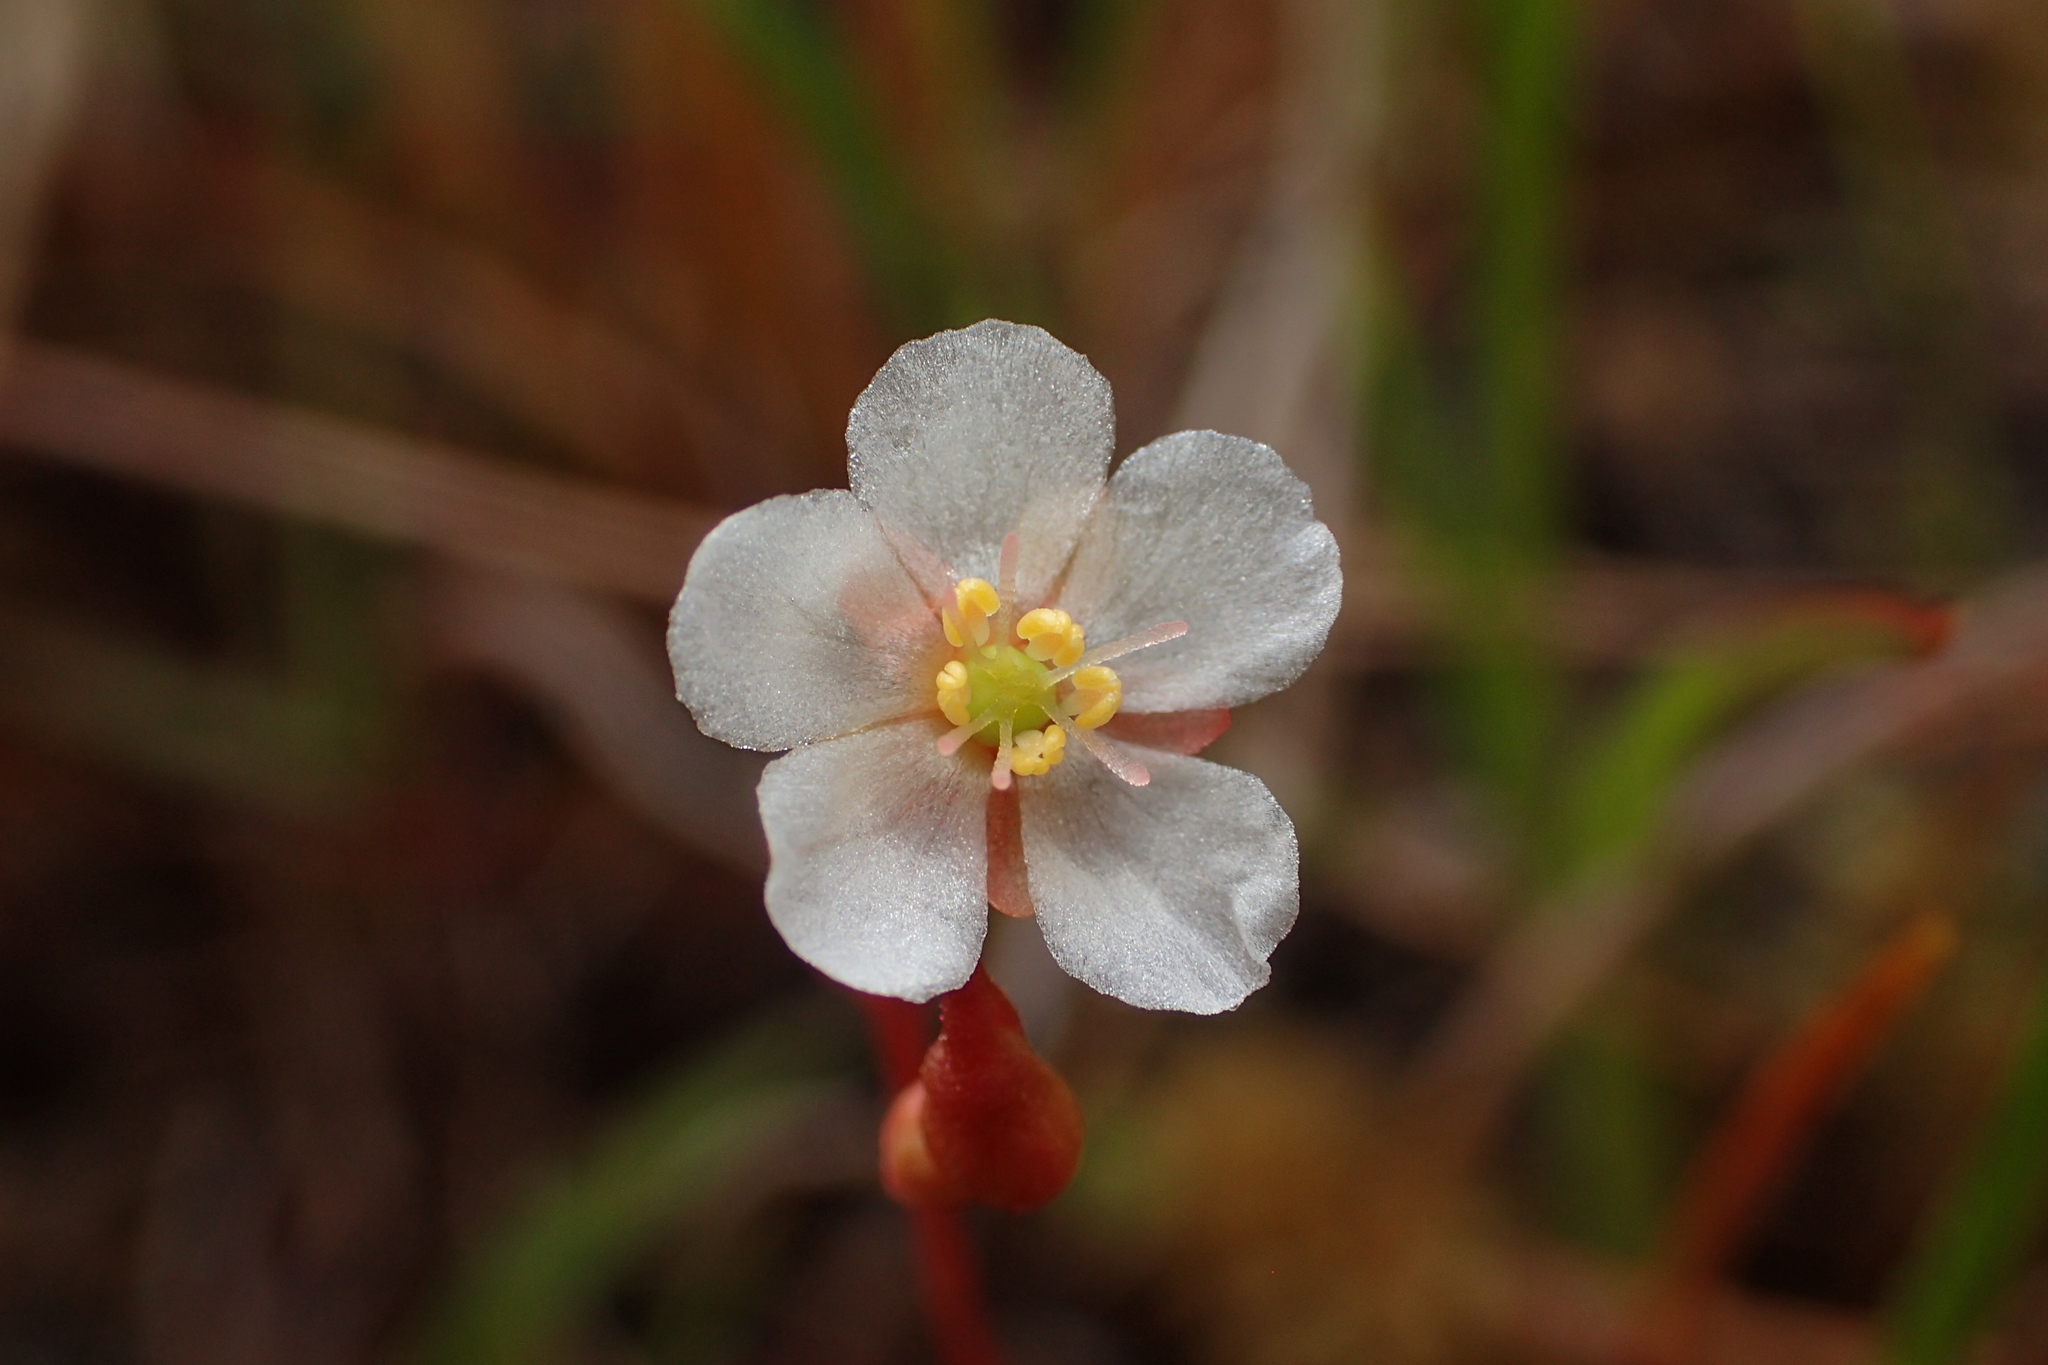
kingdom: Plantae
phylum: Tracheophyta
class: Magnoliopsida
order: Caryophyllales
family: Droseraceae
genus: Drosera
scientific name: Drosera capillaris
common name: Pink sundew
